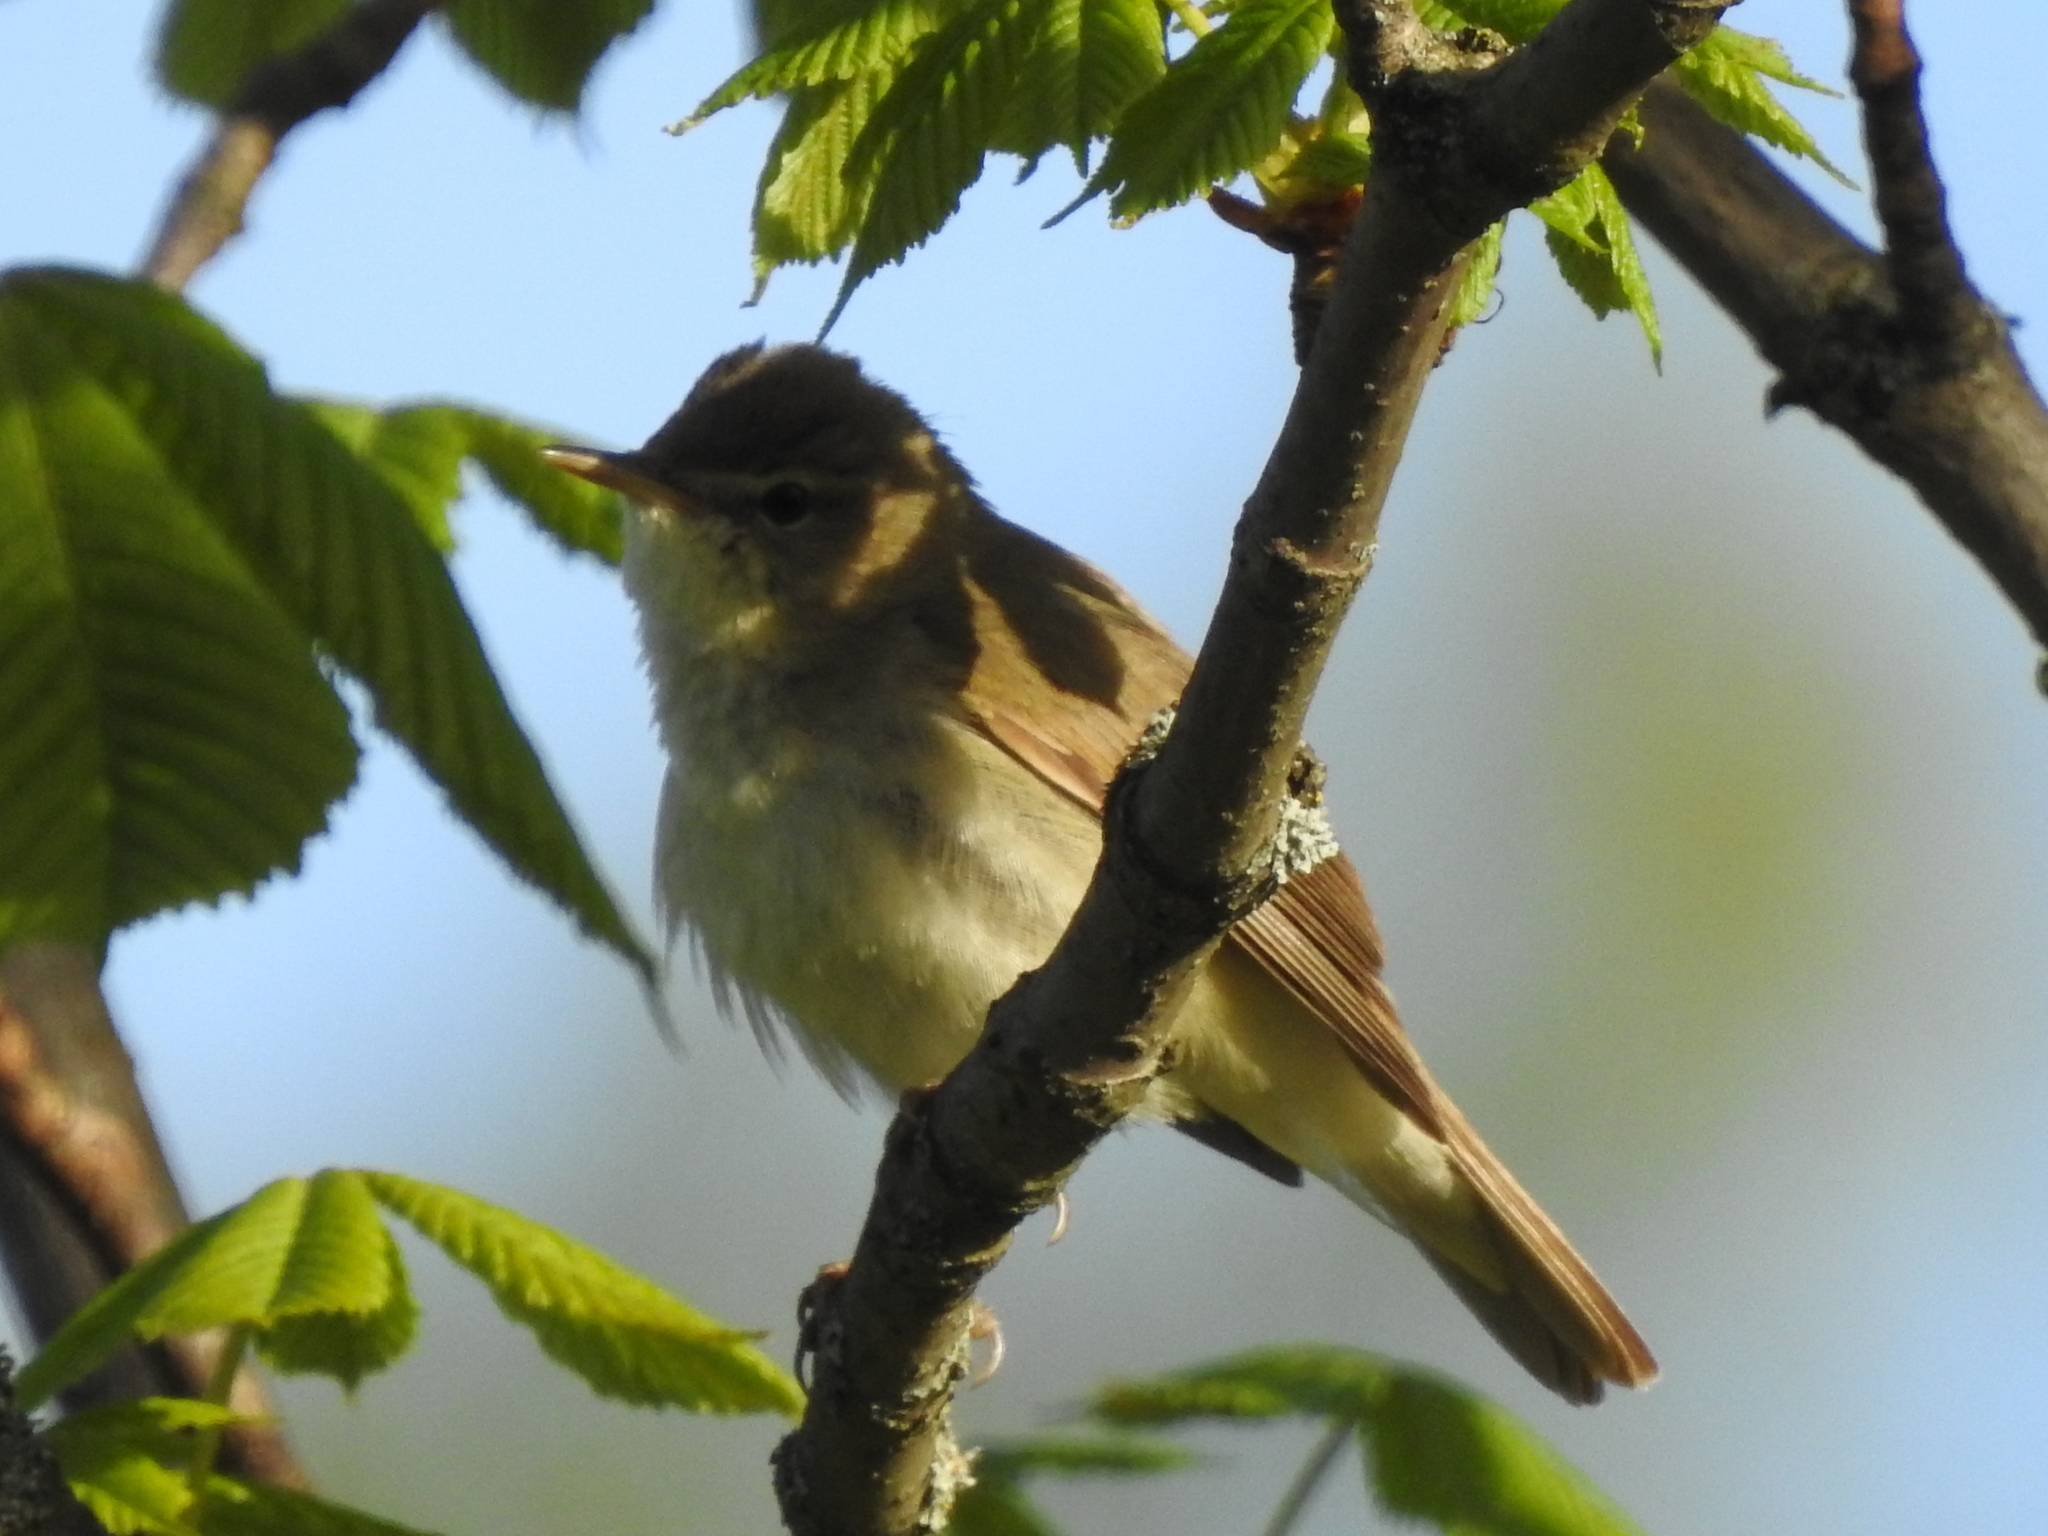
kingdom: Animalia
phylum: Chordata
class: Aves
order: Passeriformes
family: Acrocephalidae
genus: Acrocephalus
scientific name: Acrocephalus dumetorum
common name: Blyth's reed warbler
